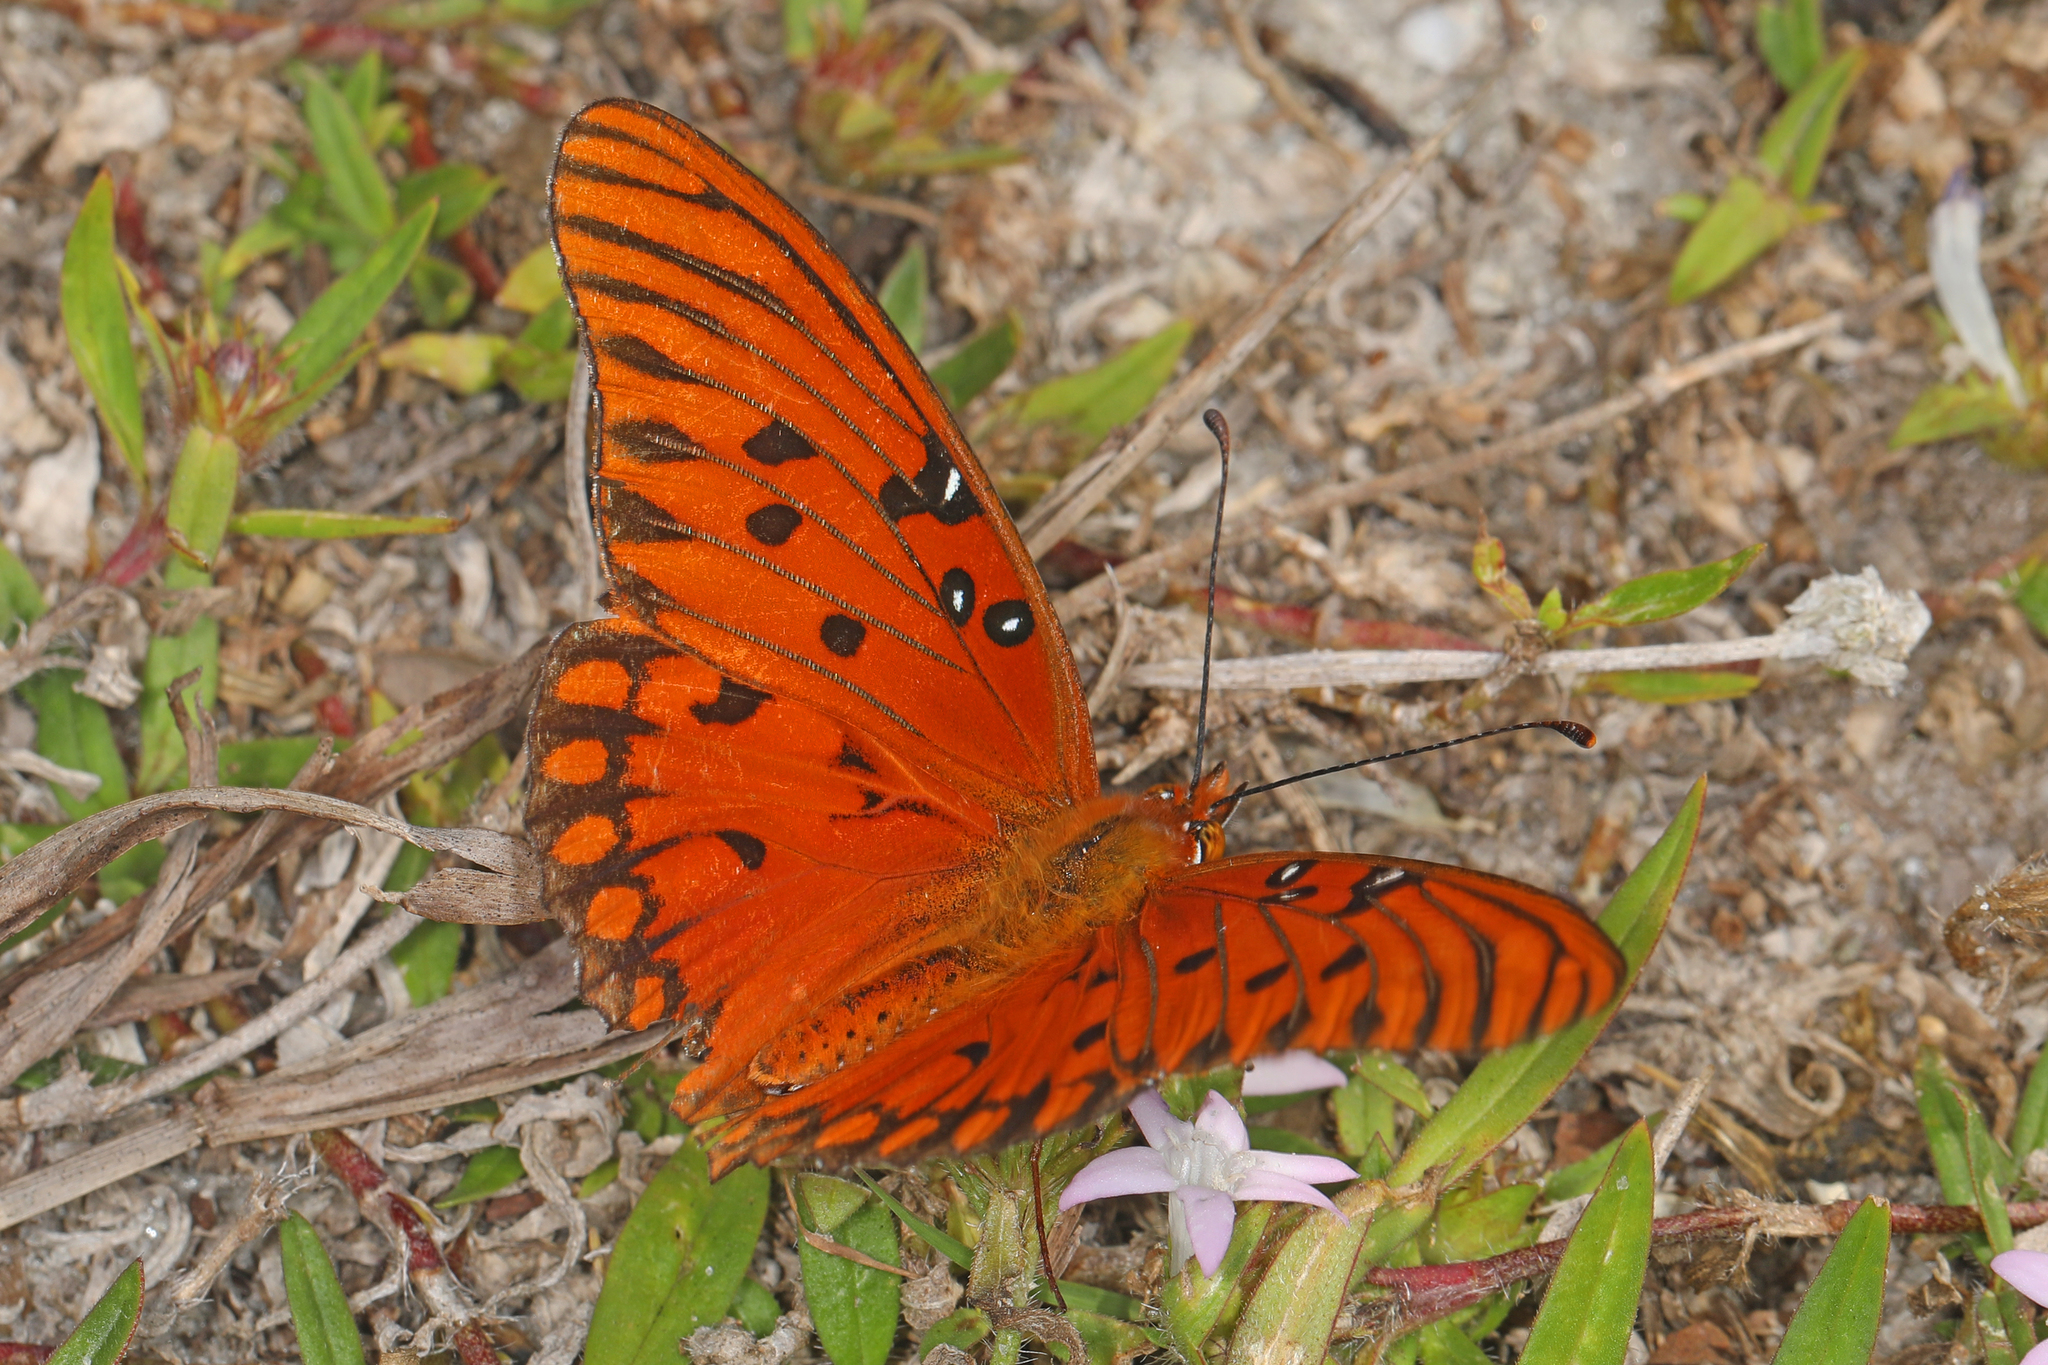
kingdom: Animalia
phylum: Arthropoda
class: Insecta
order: Lepidoptera
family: Nymphalidae
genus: Dione
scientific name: Dione vanillae
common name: Gulf fritillary
